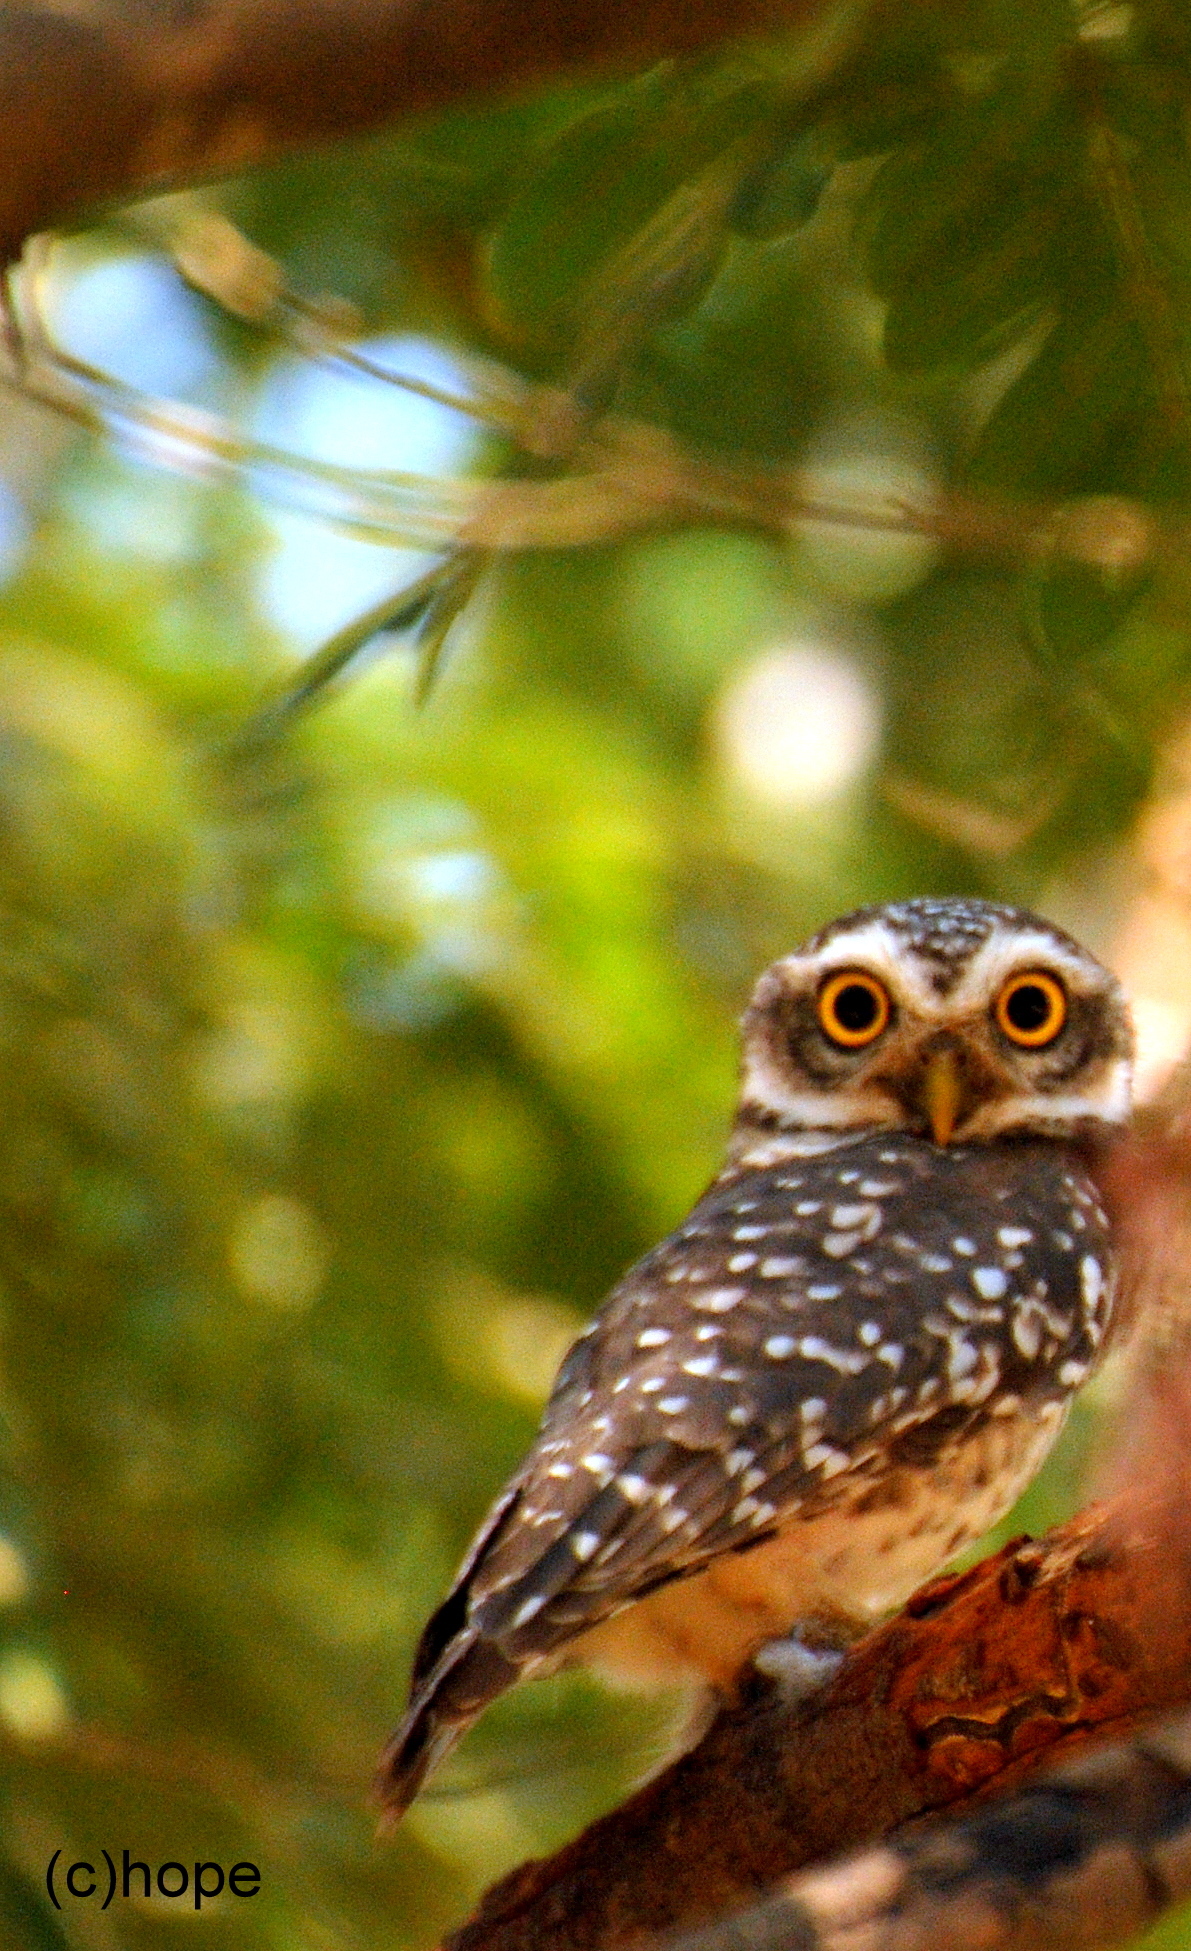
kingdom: Animalia
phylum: Chordata
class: Aves
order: Strigiformes
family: Strigidae
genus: Athene
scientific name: Athene brama
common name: Spotted owlet
